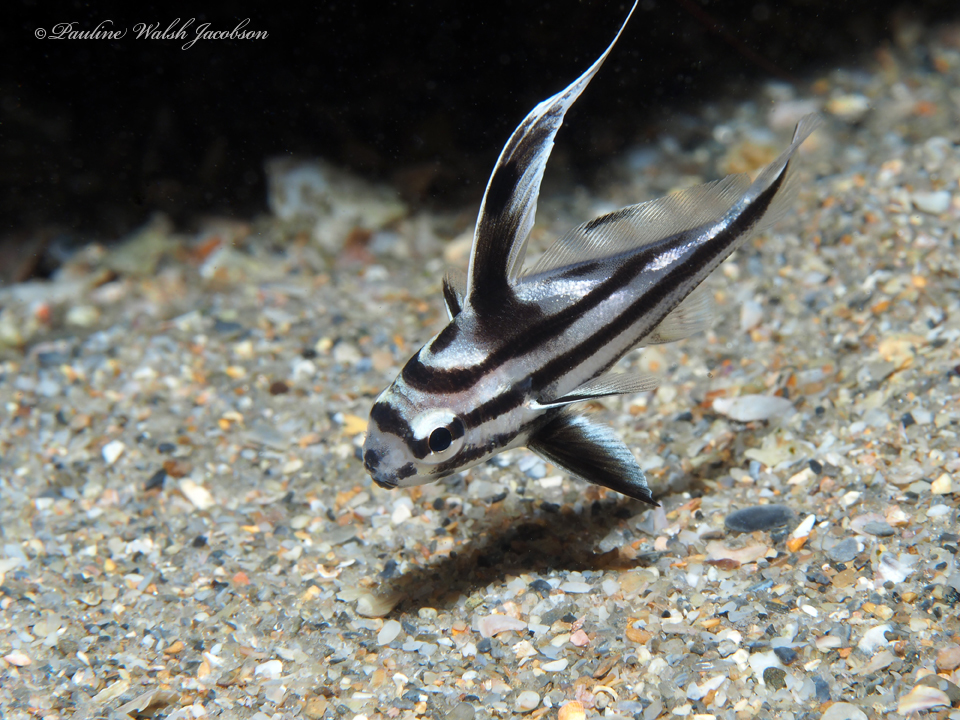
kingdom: Animalia
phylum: Chordata
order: Perciformes
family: Sciaenidae
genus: Pareques
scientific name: Pareques acuminatus
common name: High-hat
